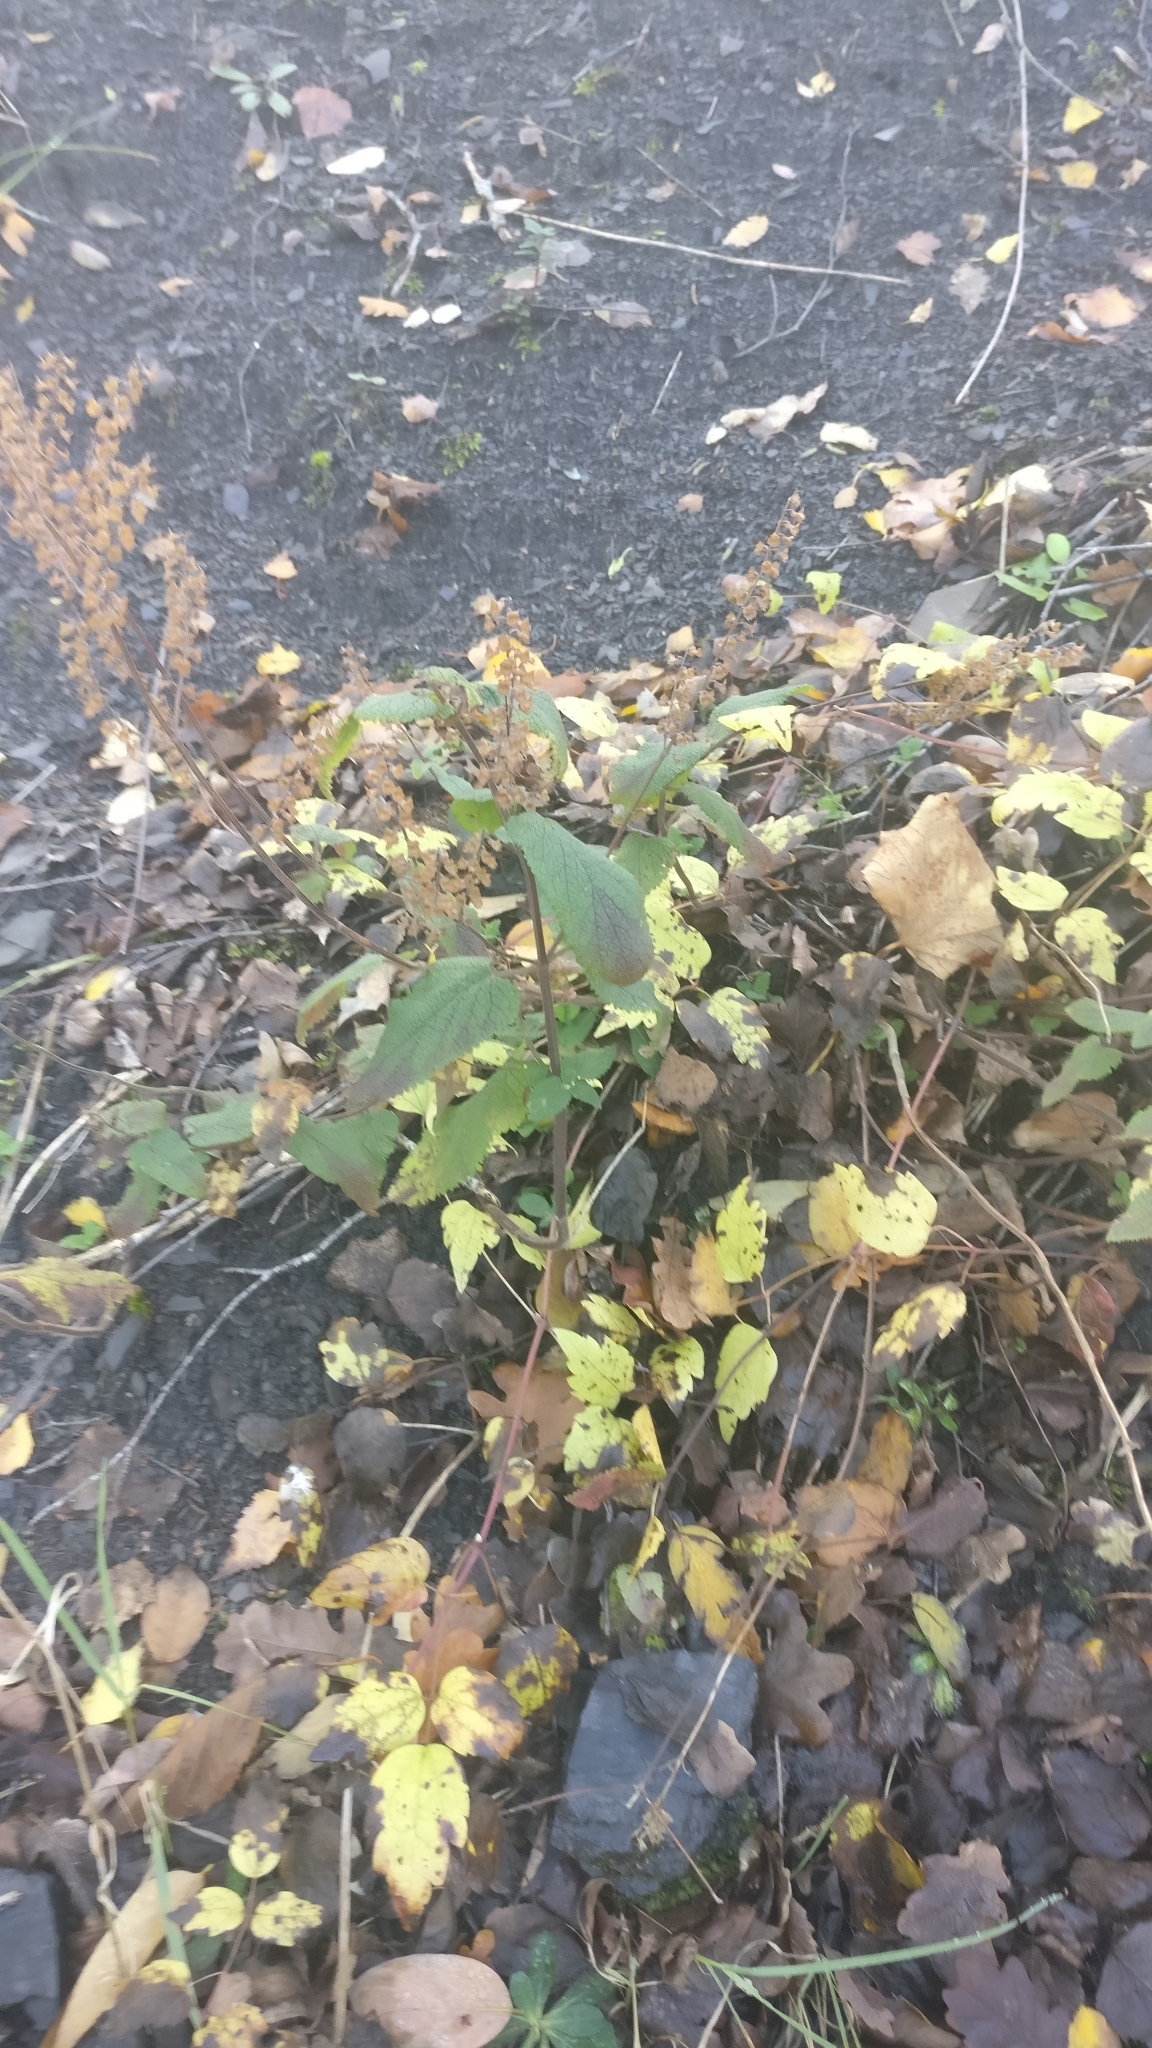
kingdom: Plantae
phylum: Tracheophyta
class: Magnoliopsida
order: Lamiales
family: Lamiaceae
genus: Teucrium
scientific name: Teucrium scorodonia
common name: Woodland germander
